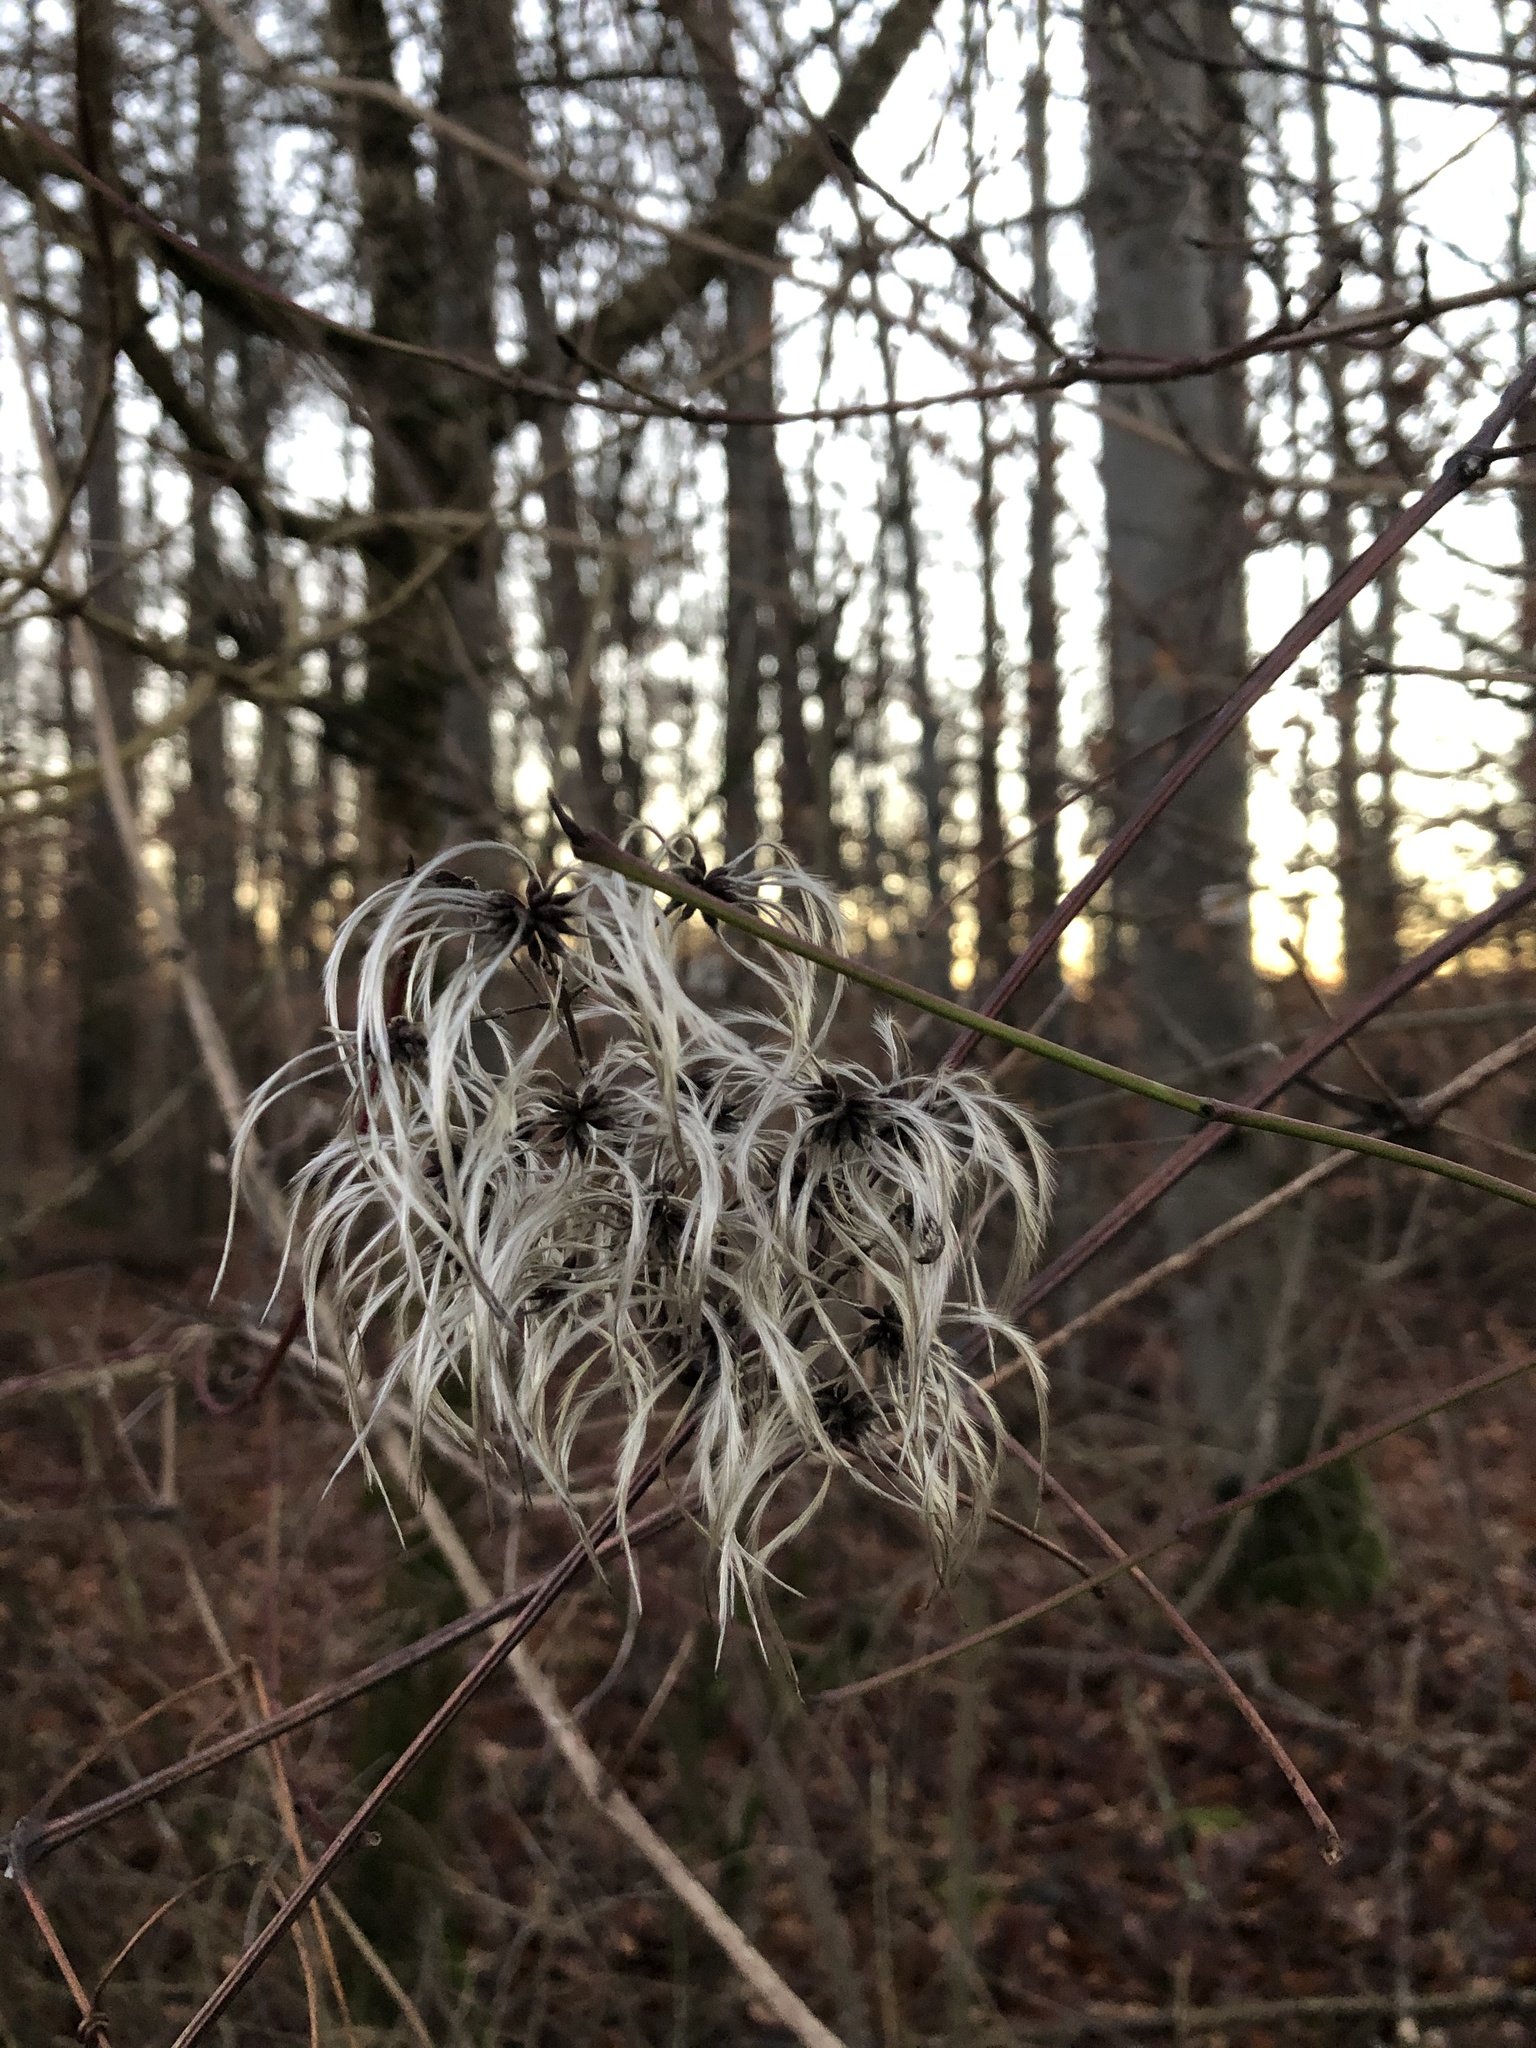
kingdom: Plantae
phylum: Tracheophyta
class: Magnoliopsida
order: Ranunculales
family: Ranunculaceae
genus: Clematis
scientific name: Clematis vitalba
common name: Evergreen clematis
